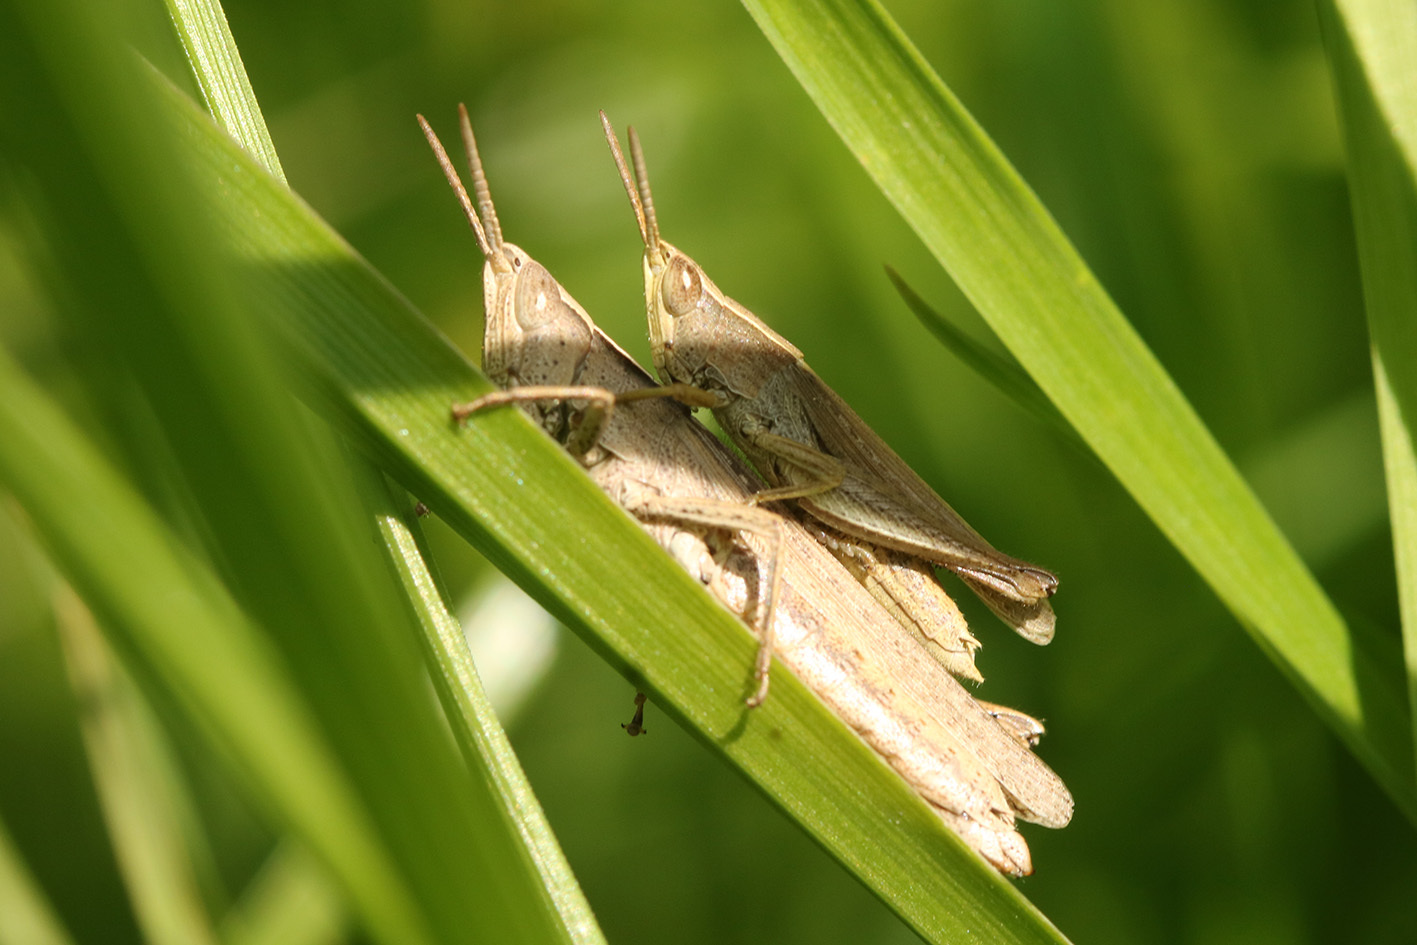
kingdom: Animalia
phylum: Arthropoda
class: Insecta
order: Orthoptera
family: Acrididae
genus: Laplatacris
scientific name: Laplatacris dispar
